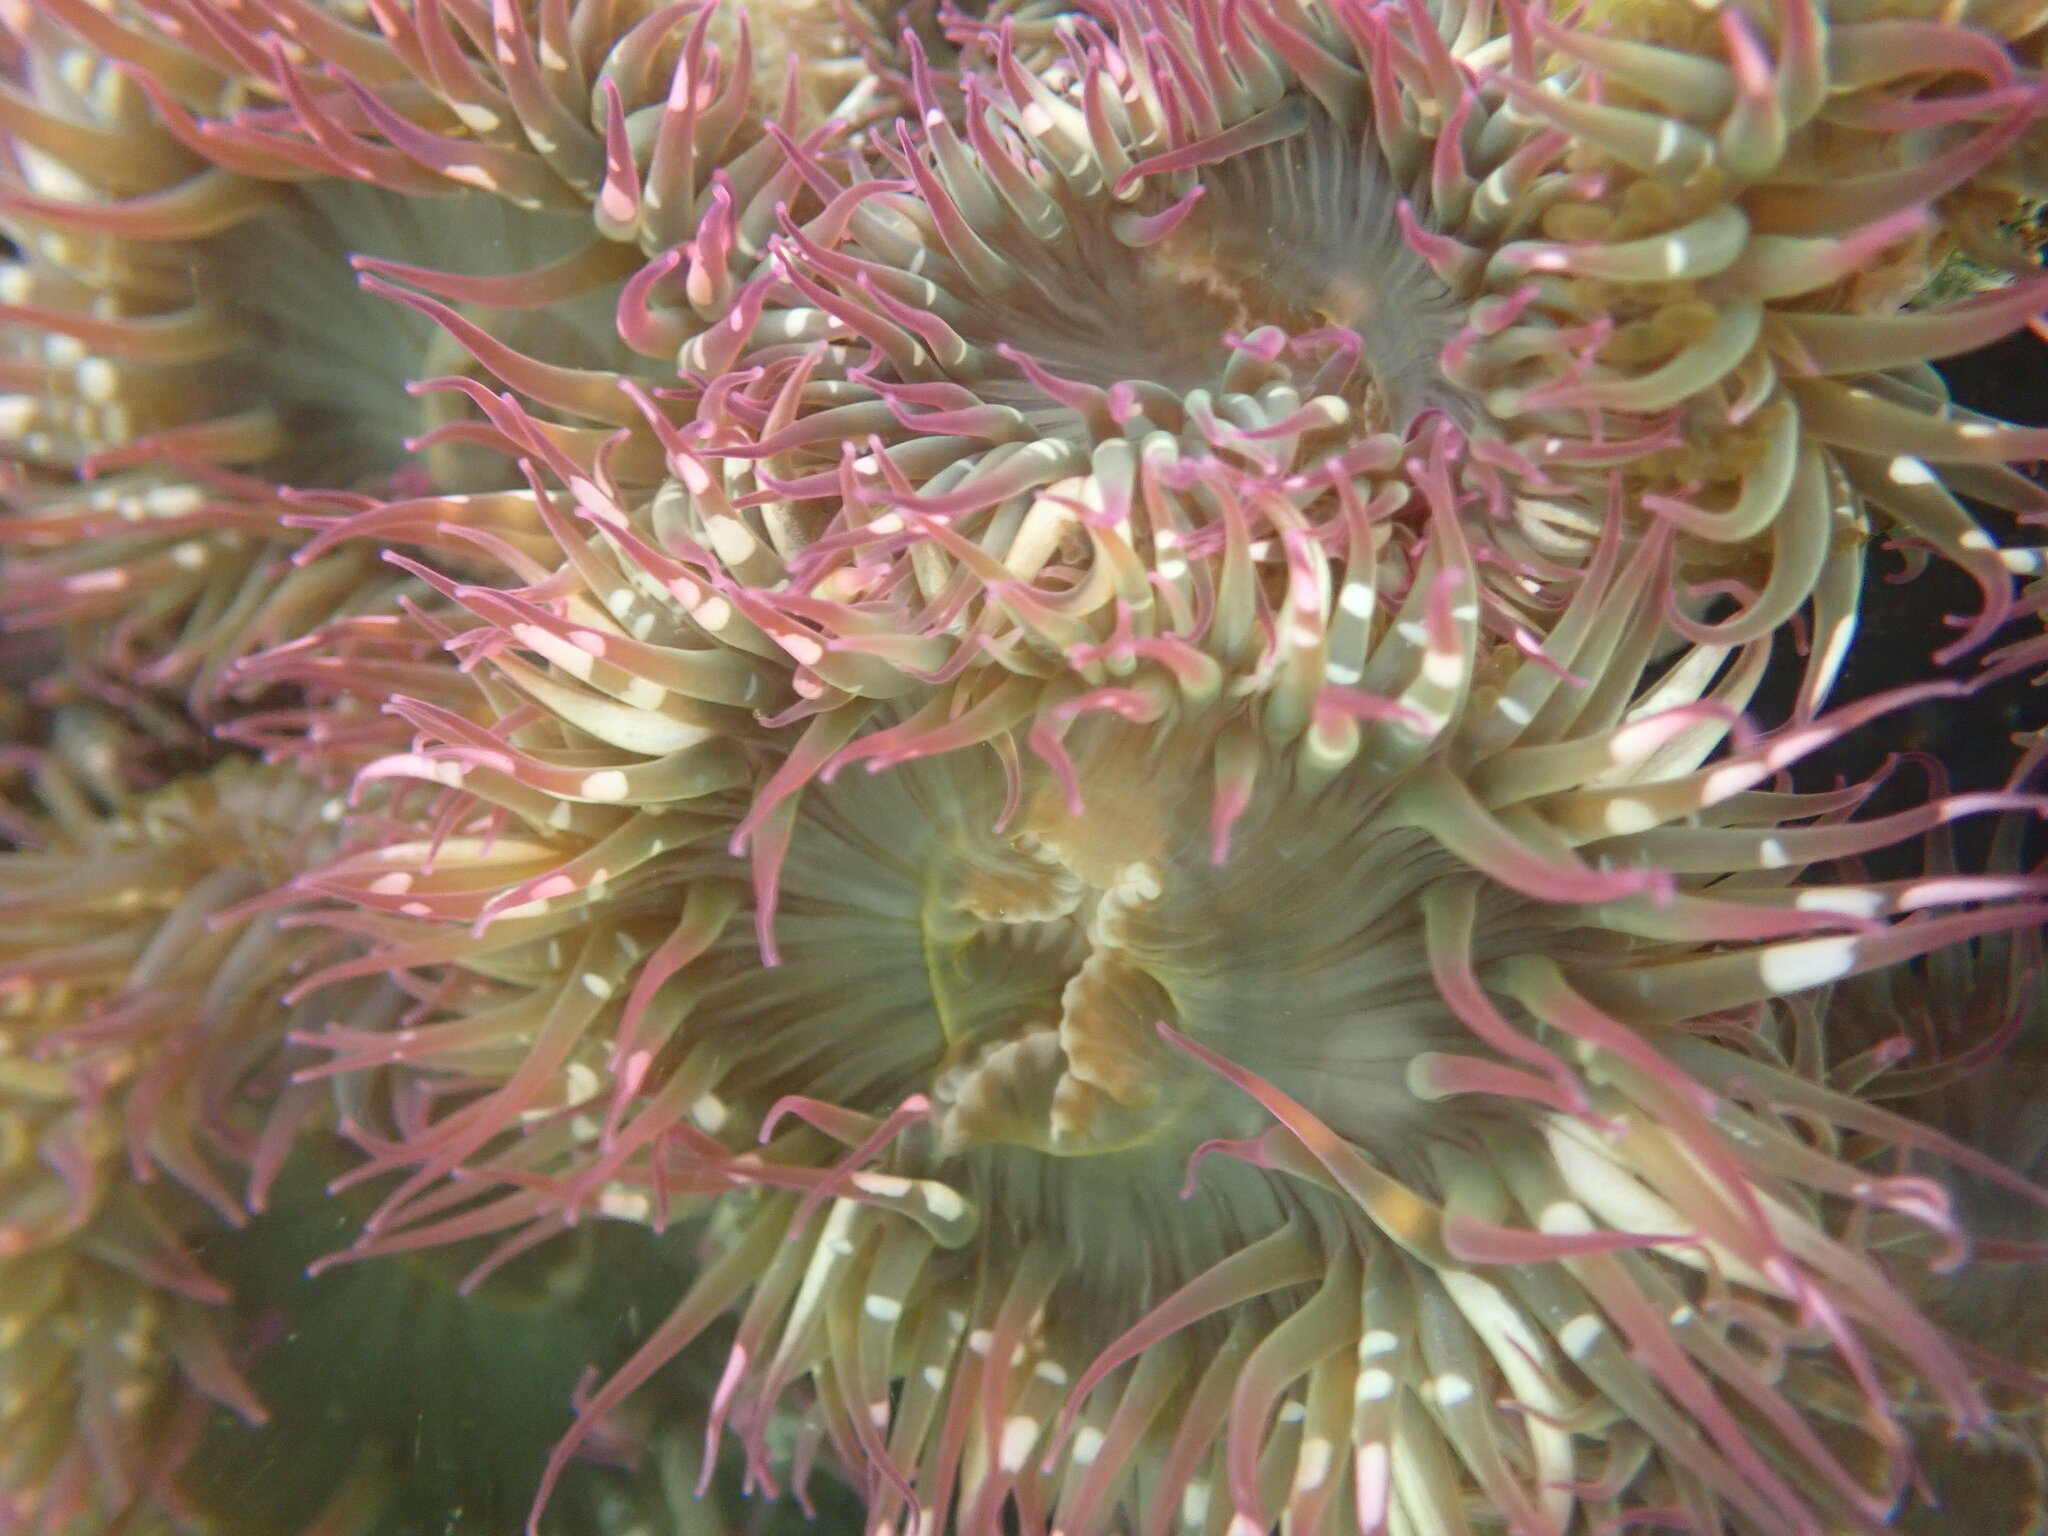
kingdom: Animalia
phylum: Cnidaria
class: Anthozoa
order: Actiniaria
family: Actiniidae
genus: Anthopleura
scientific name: Anthopleura elegantissima
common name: Clonal anemone
